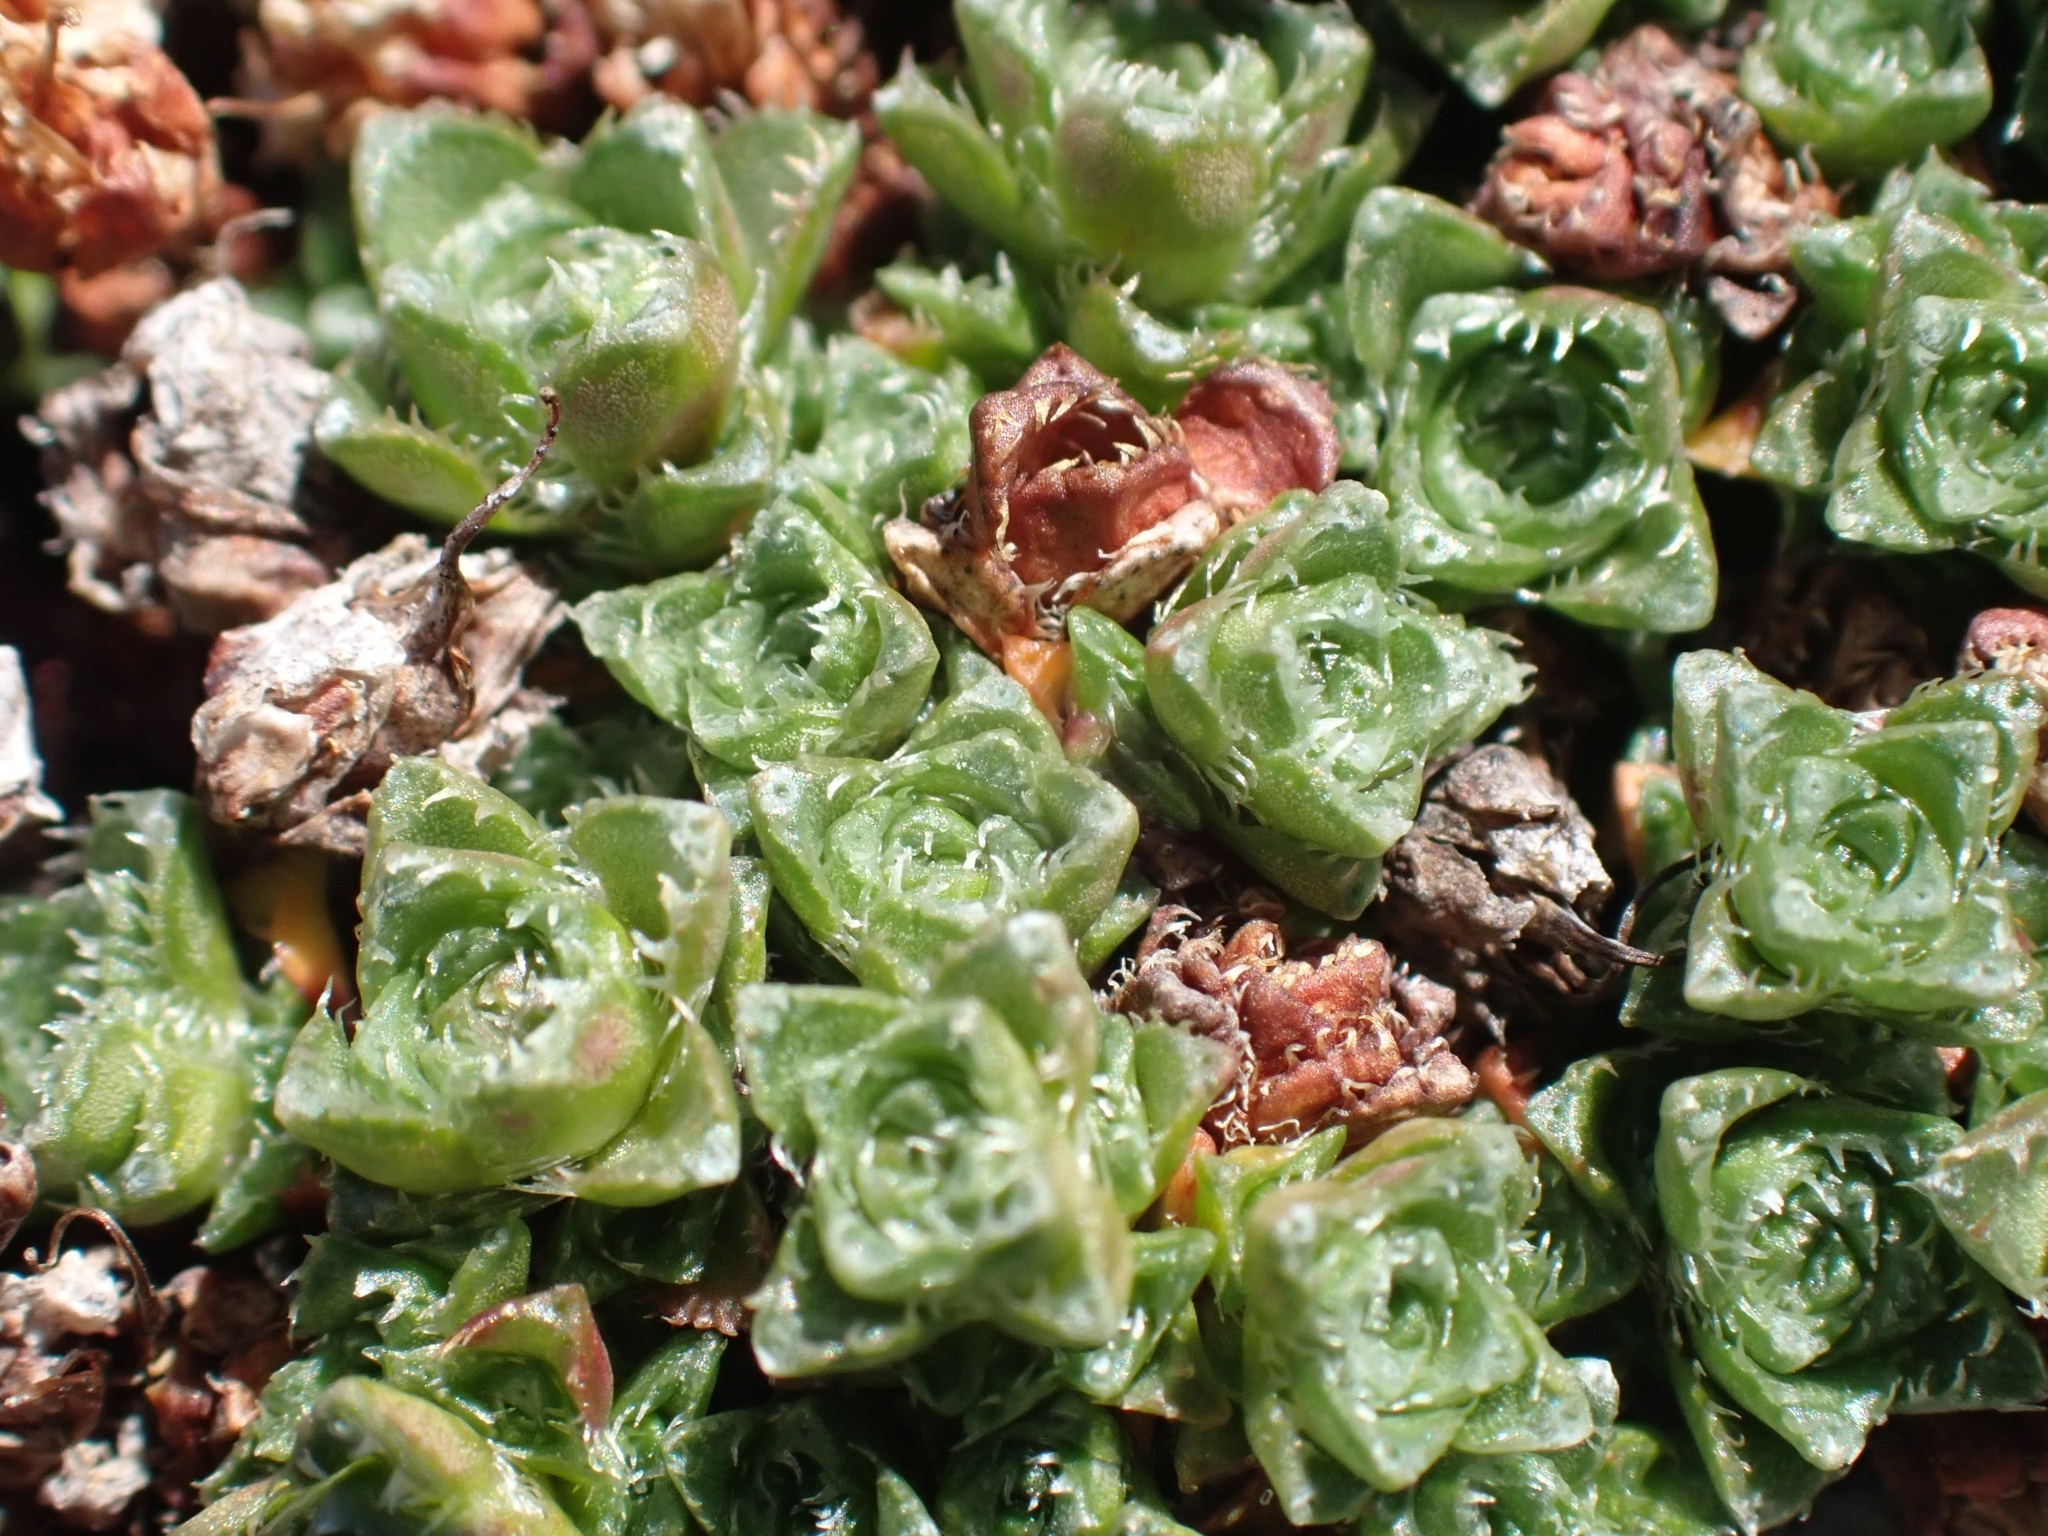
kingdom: Plantae
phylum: Tracheophyta
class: Magnoliopsida
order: Saxifragales
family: Saxifragaceae
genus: Saxifraga
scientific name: Saxifraga oppositifolia
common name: Purple saxifrage
